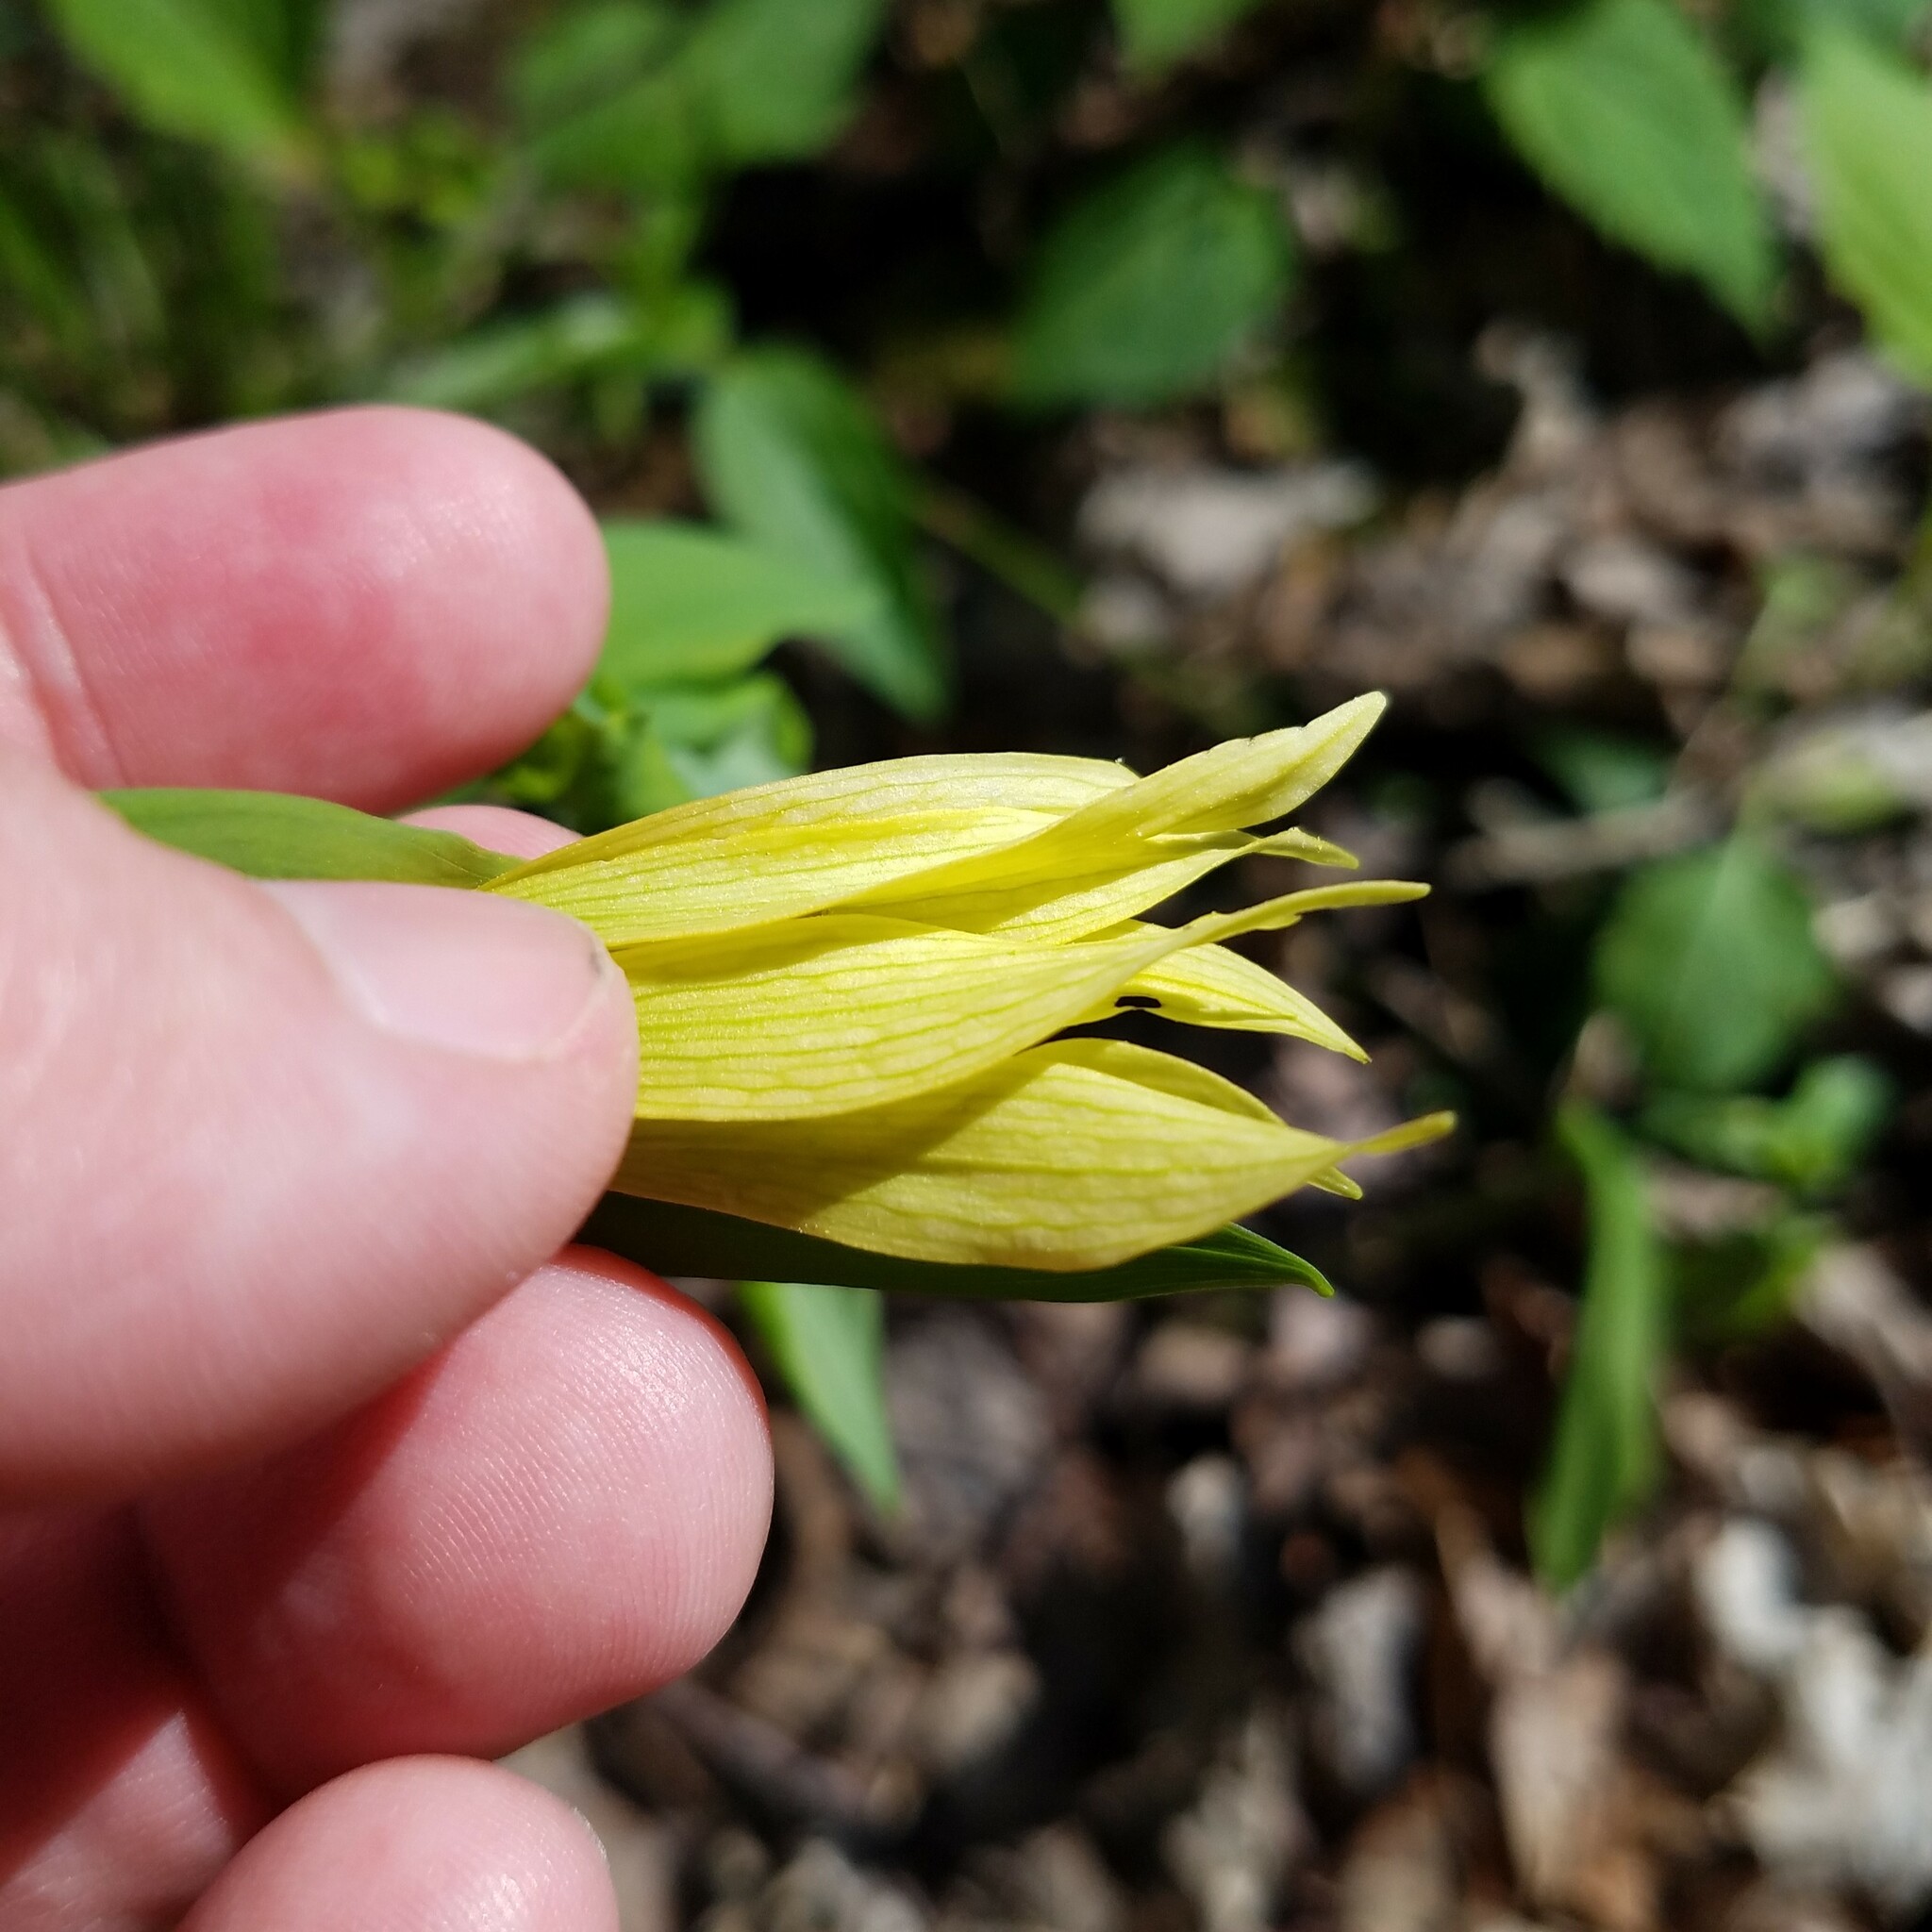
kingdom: Plantae
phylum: Tracheophyta
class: Liliopsida
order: Liliales
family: Colchicaceae
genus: Uvularia
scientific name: Uvularia grandiflora
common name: Bellwort
